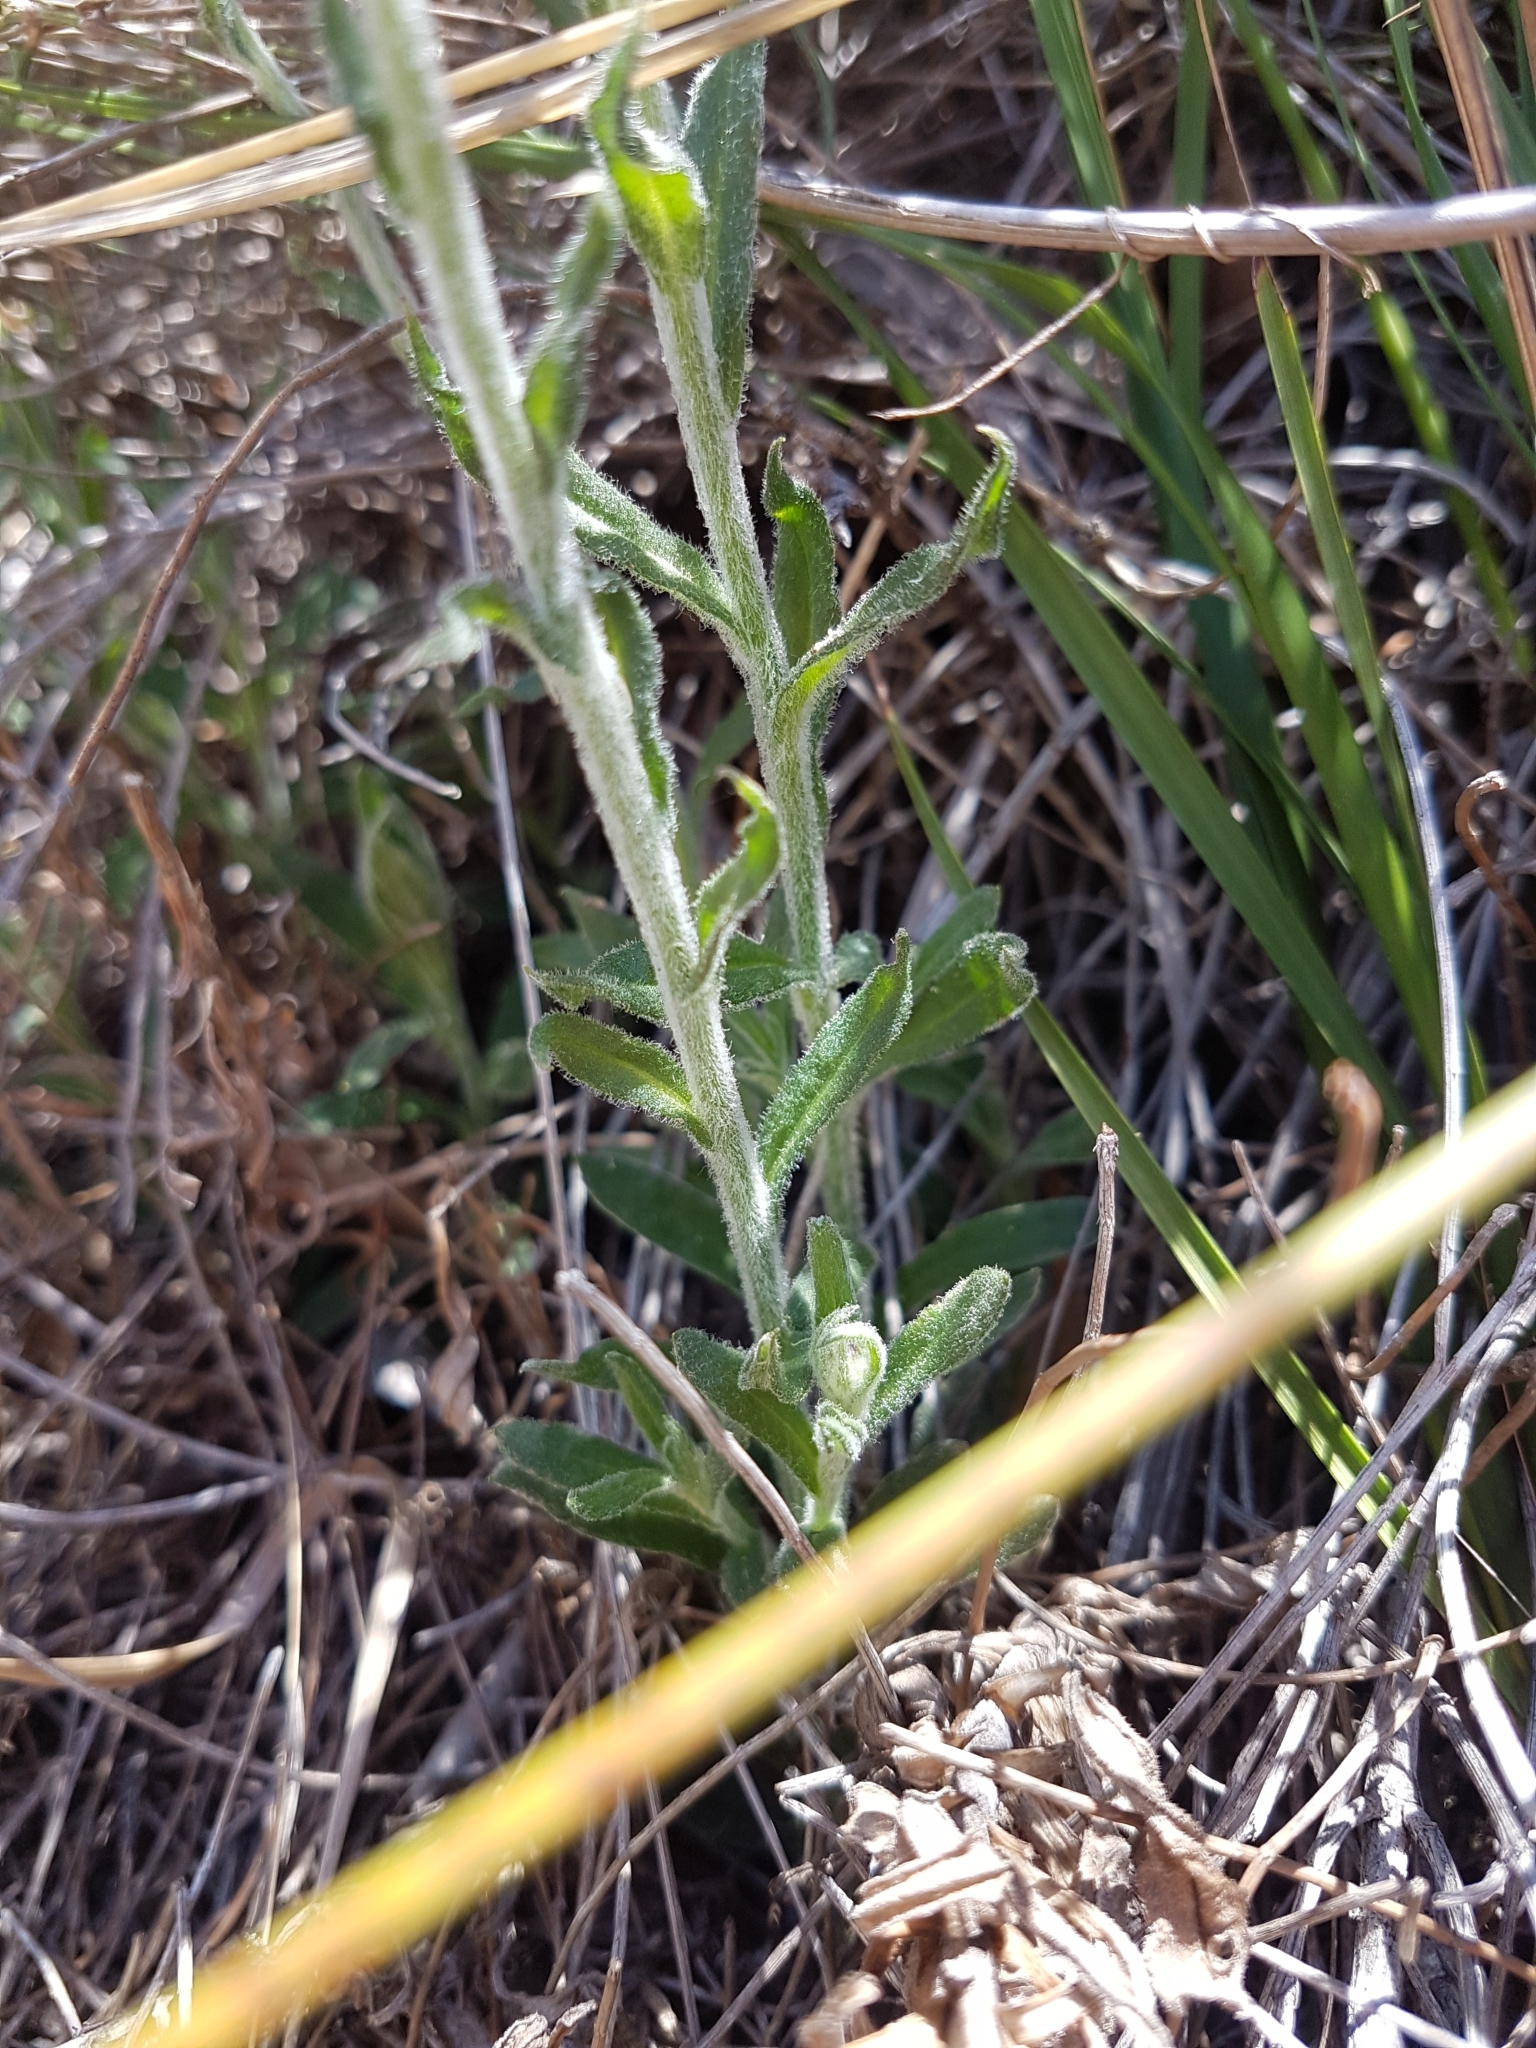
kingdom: Plantae
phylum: Tracheophyta
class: Magnoliopsida
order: Asterales
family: Asteraceae
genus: Coronidium
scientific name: Coronidium scorpioides
